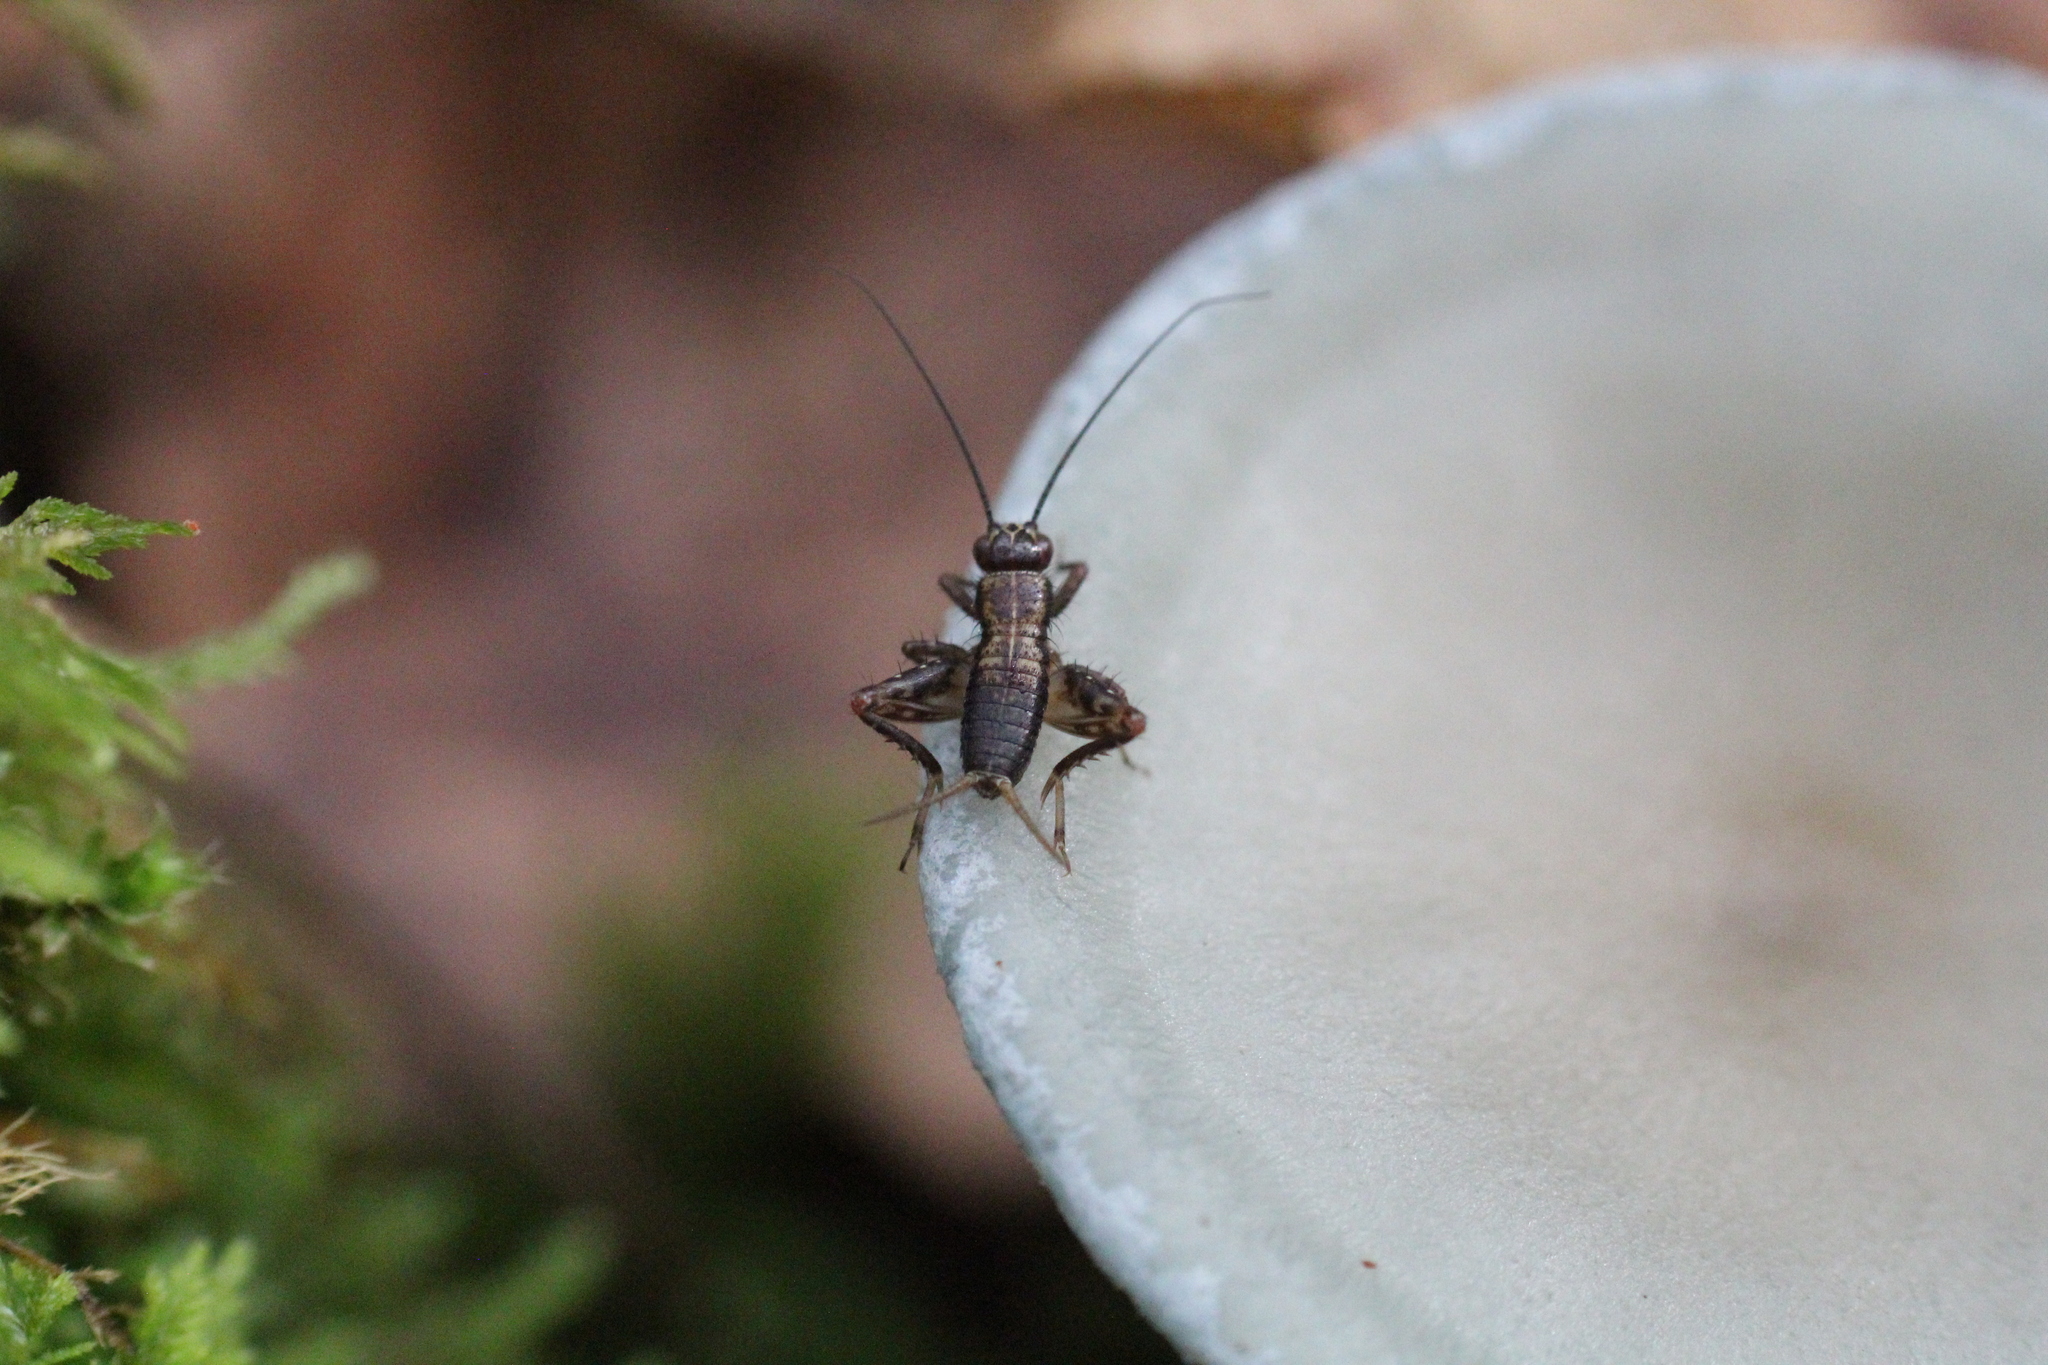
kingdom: Animalia
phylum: Arthropoda
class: Insecta
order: Orthoptera
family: Trigonidiidae
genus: Nemobius
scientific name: Nemobius sylvestris
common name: Wood-cricket
